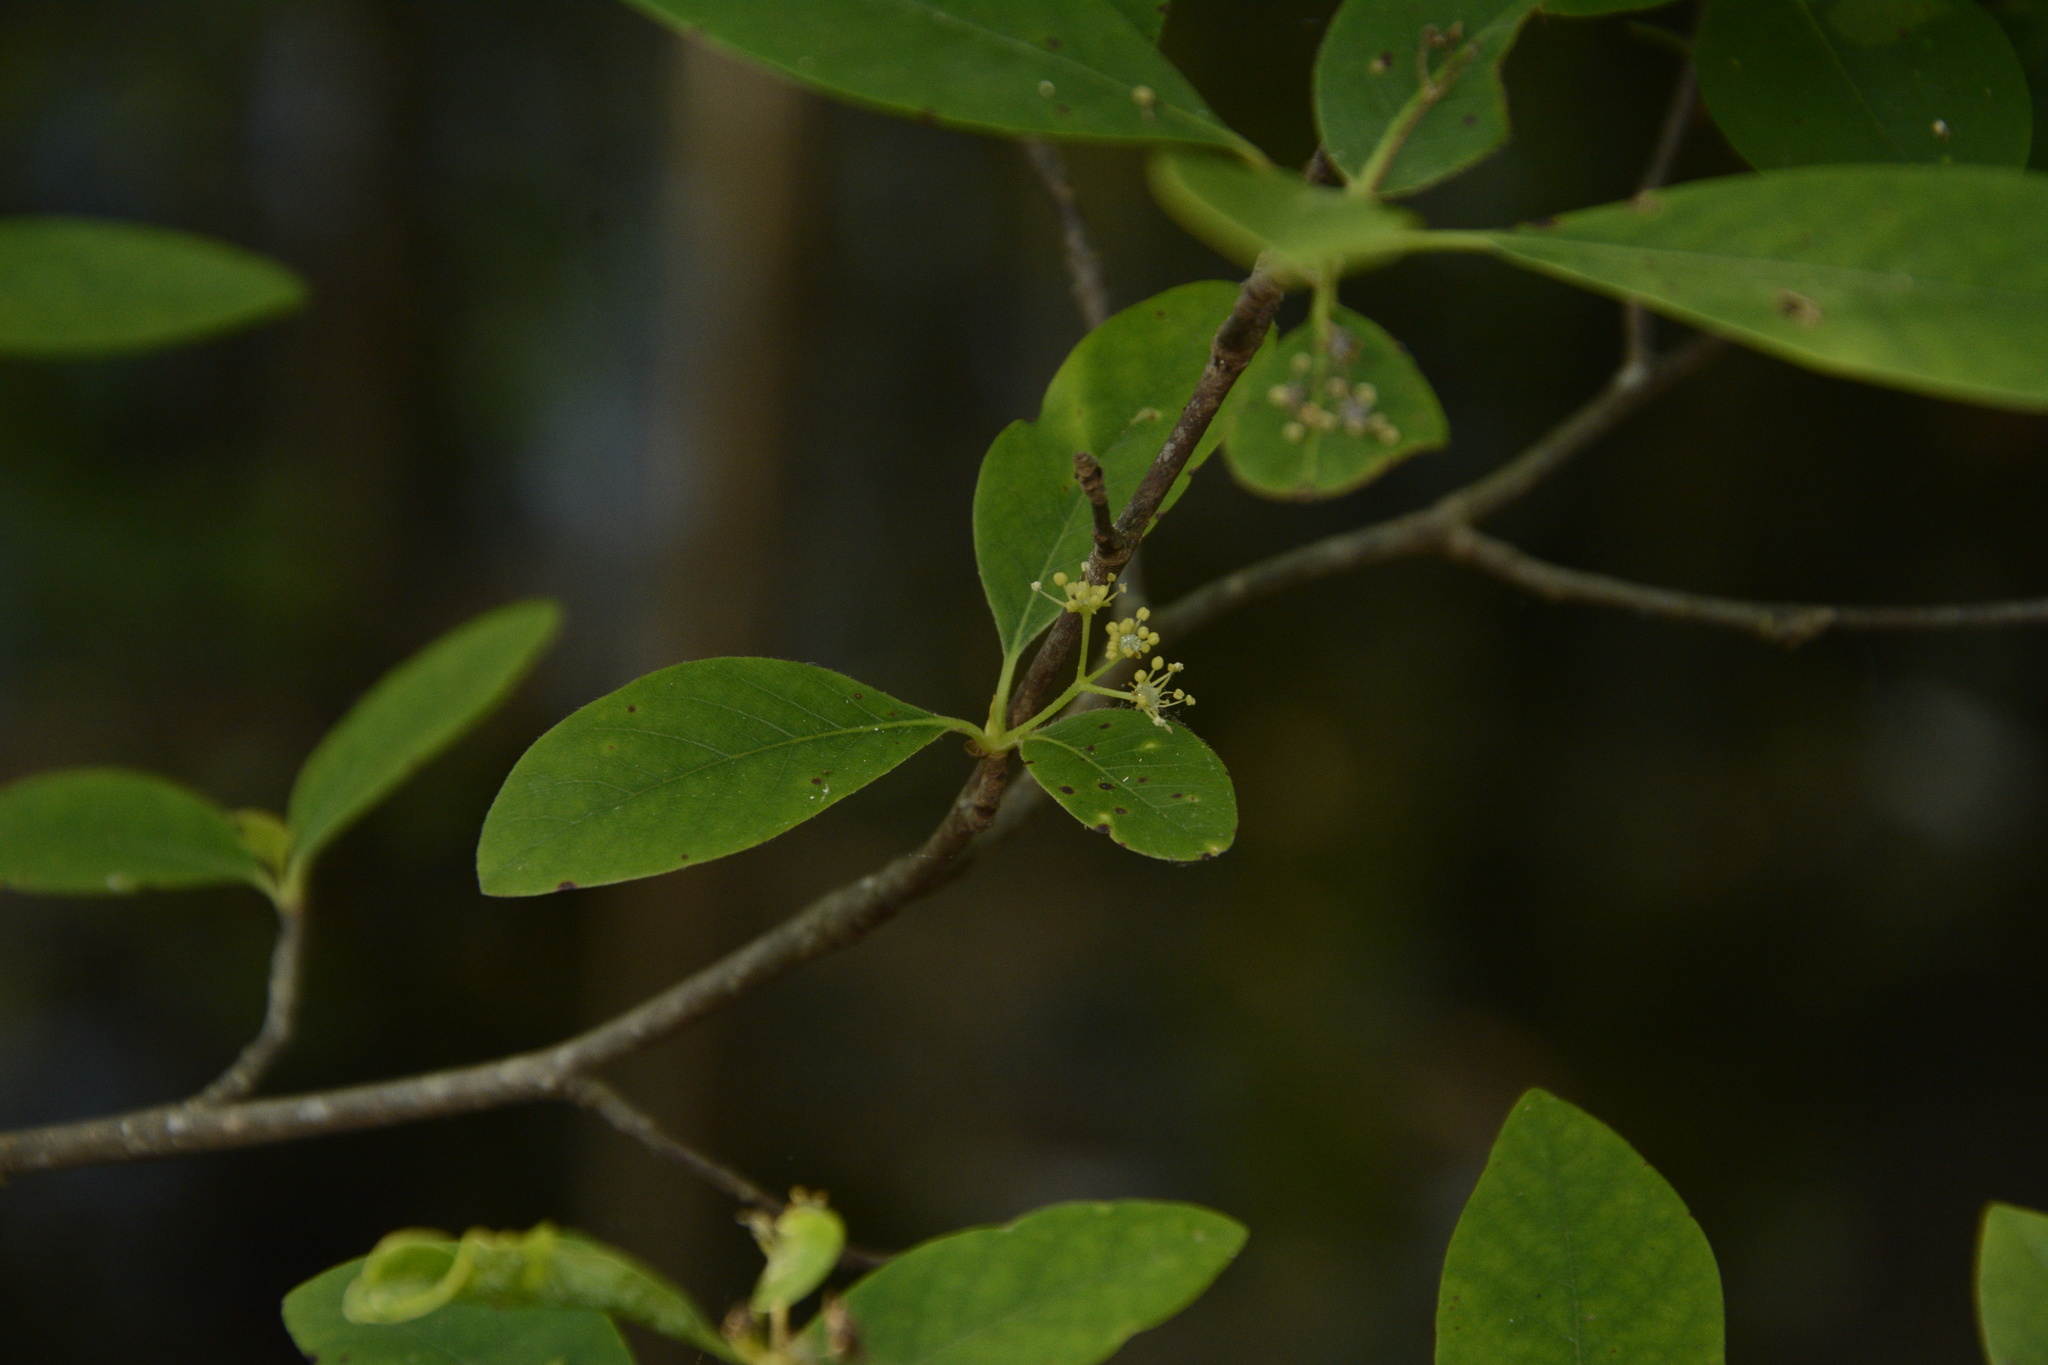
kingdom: Plantae
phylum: Tracheophyta
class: Magnoliopsida
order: Cornales
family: Nyssaceae
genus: Nyssa
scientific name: Nyssa biflora
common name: Swamp blackgum
